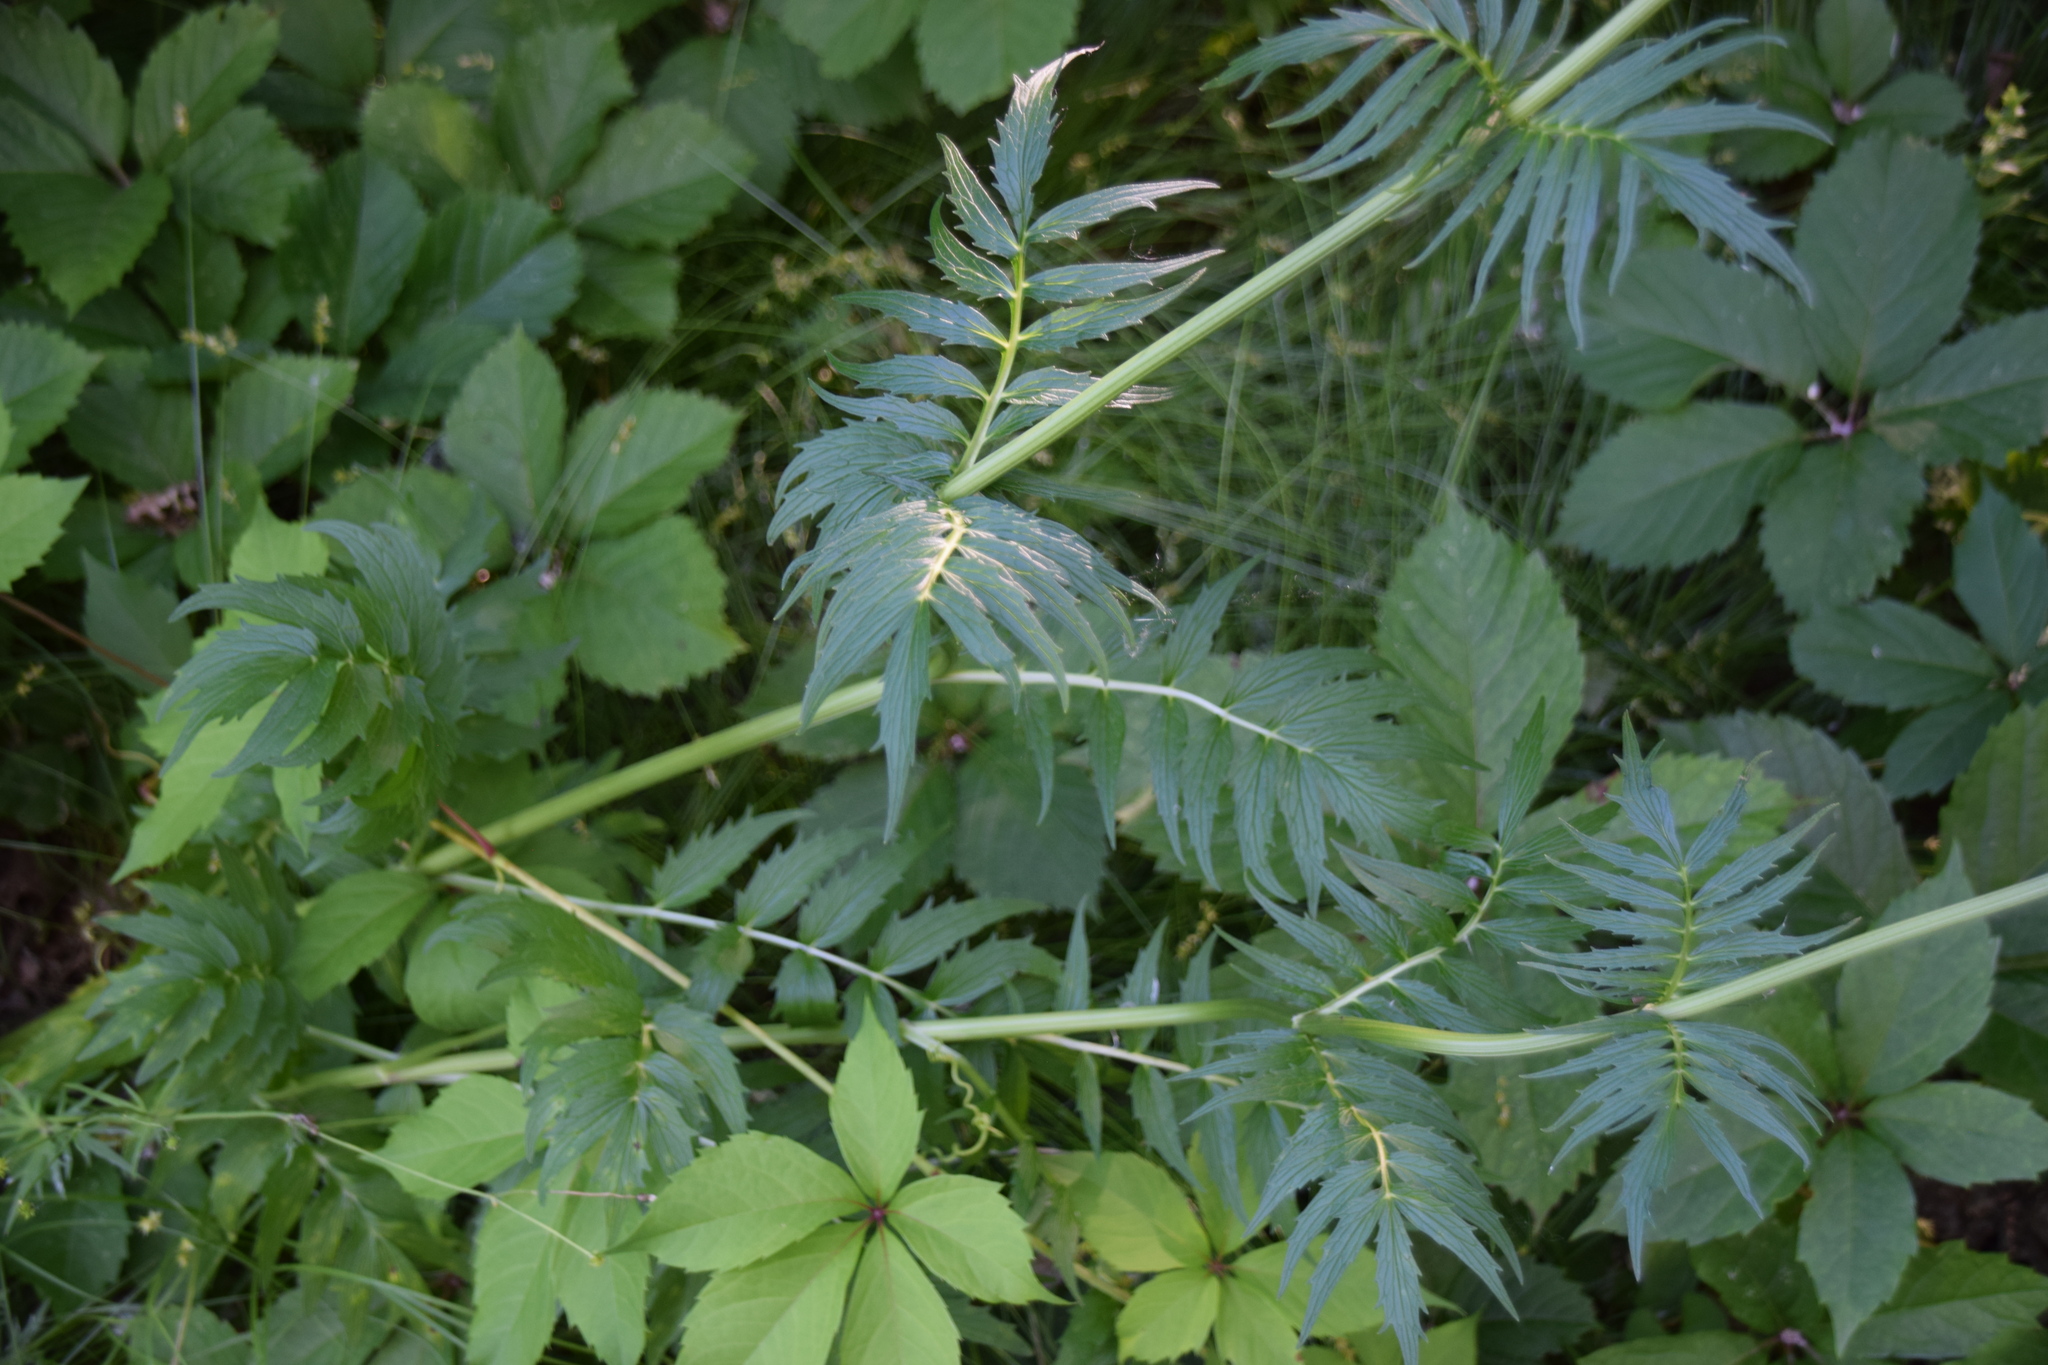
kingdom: Plantae
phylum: Tracheophyta
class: Magnoliopsida
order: Dipsacales
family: Caprifoliaceae
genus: Valeriana
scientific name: Valeriana officinalis
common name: Common valerian
